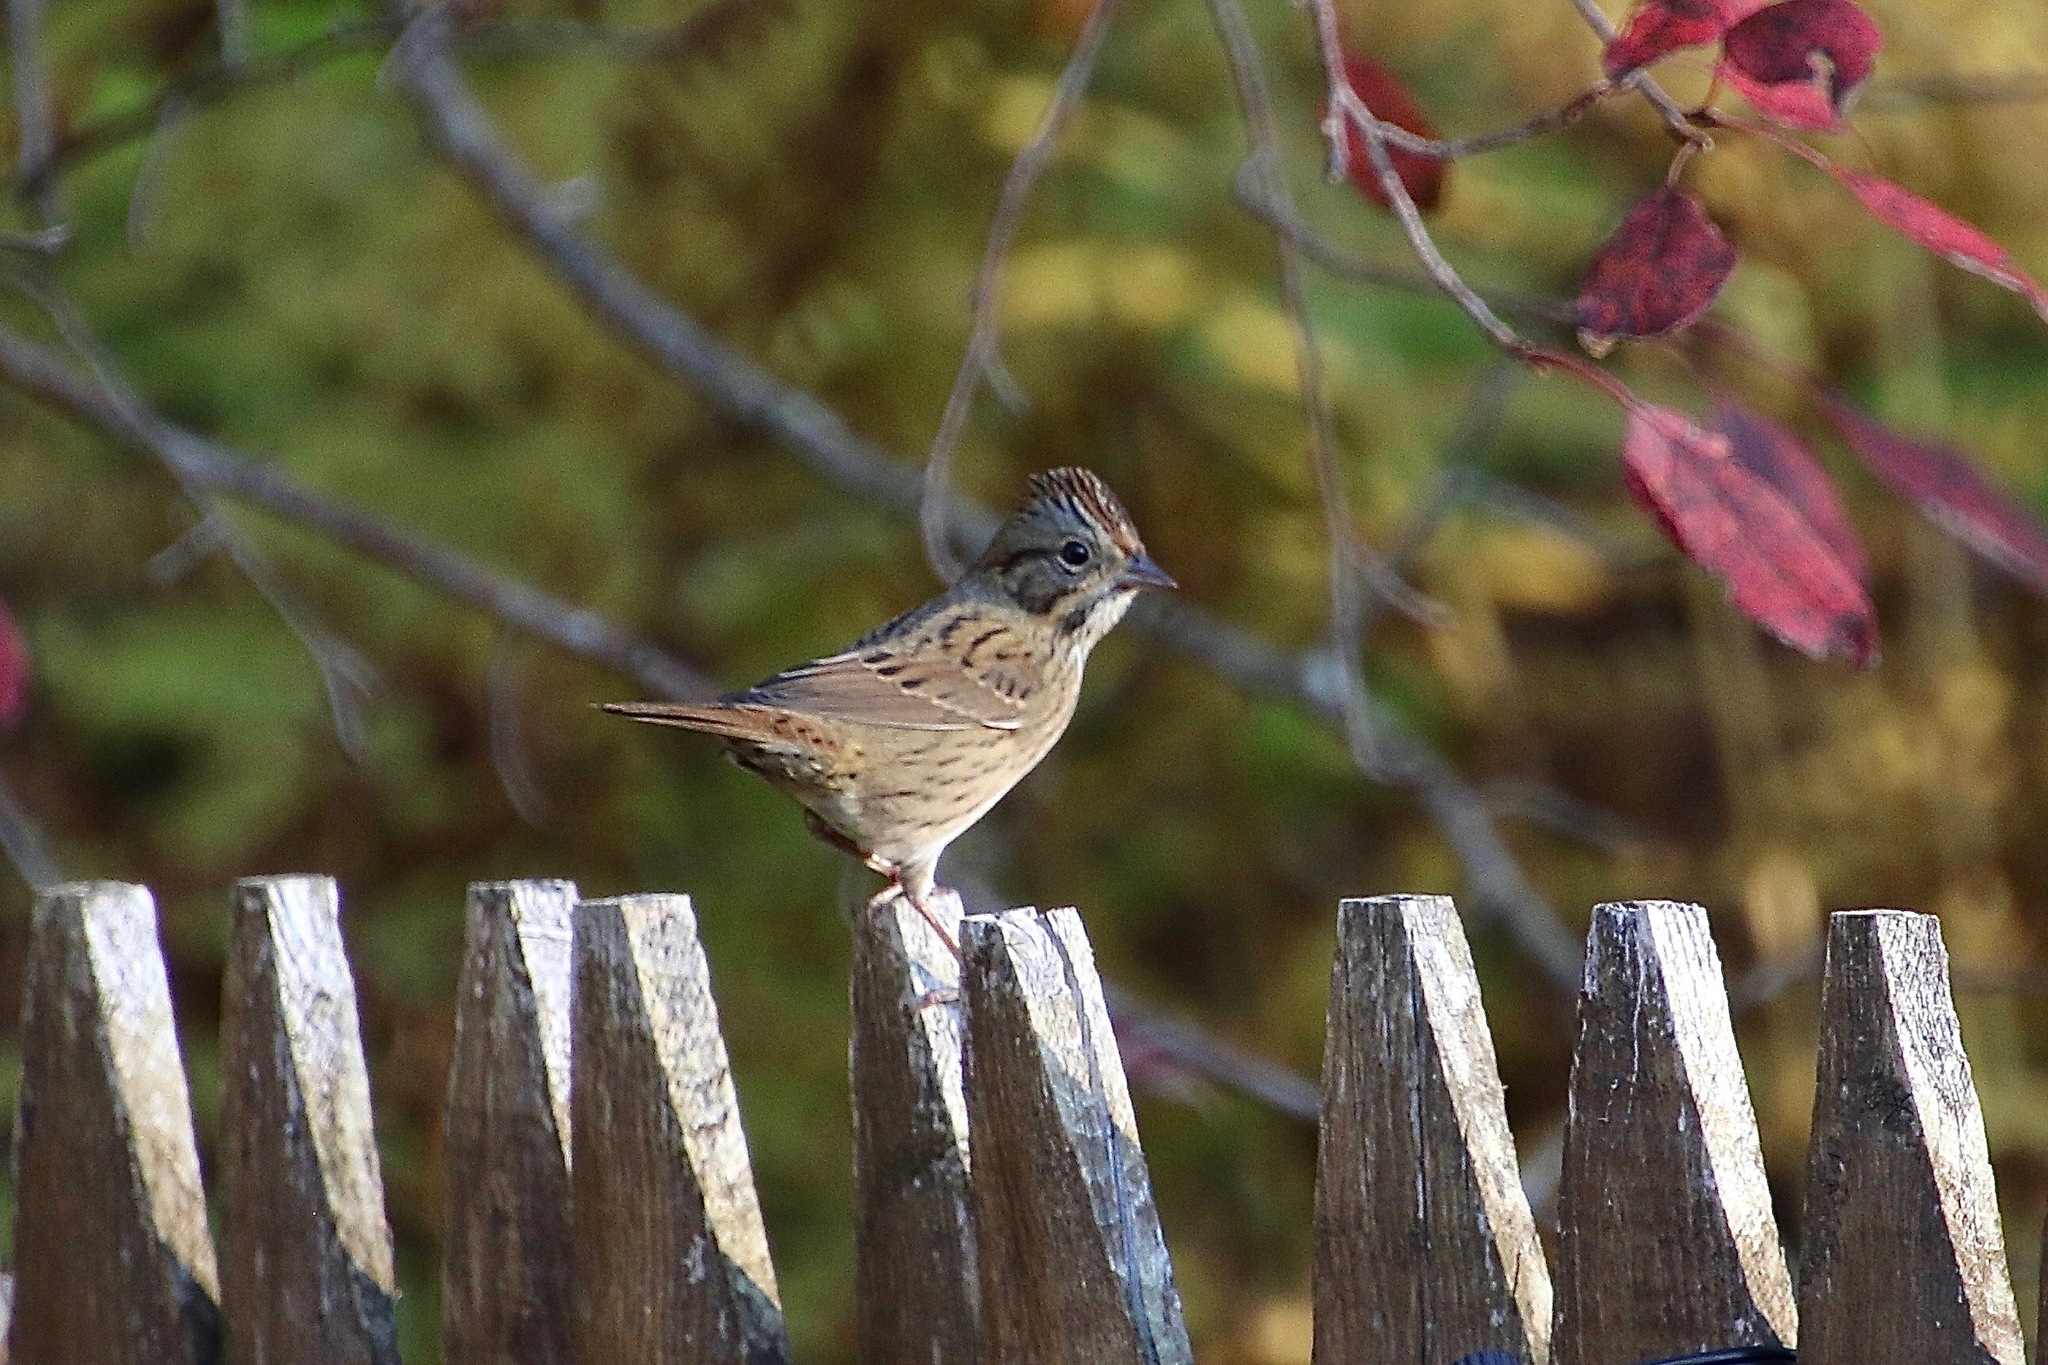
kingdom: Animalia
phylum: Chordata
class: Aves
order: Passeriformes
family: Passerellidae
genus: Melospiza
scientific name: Melospiza lincolnii
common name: Lincoln's sparrow
